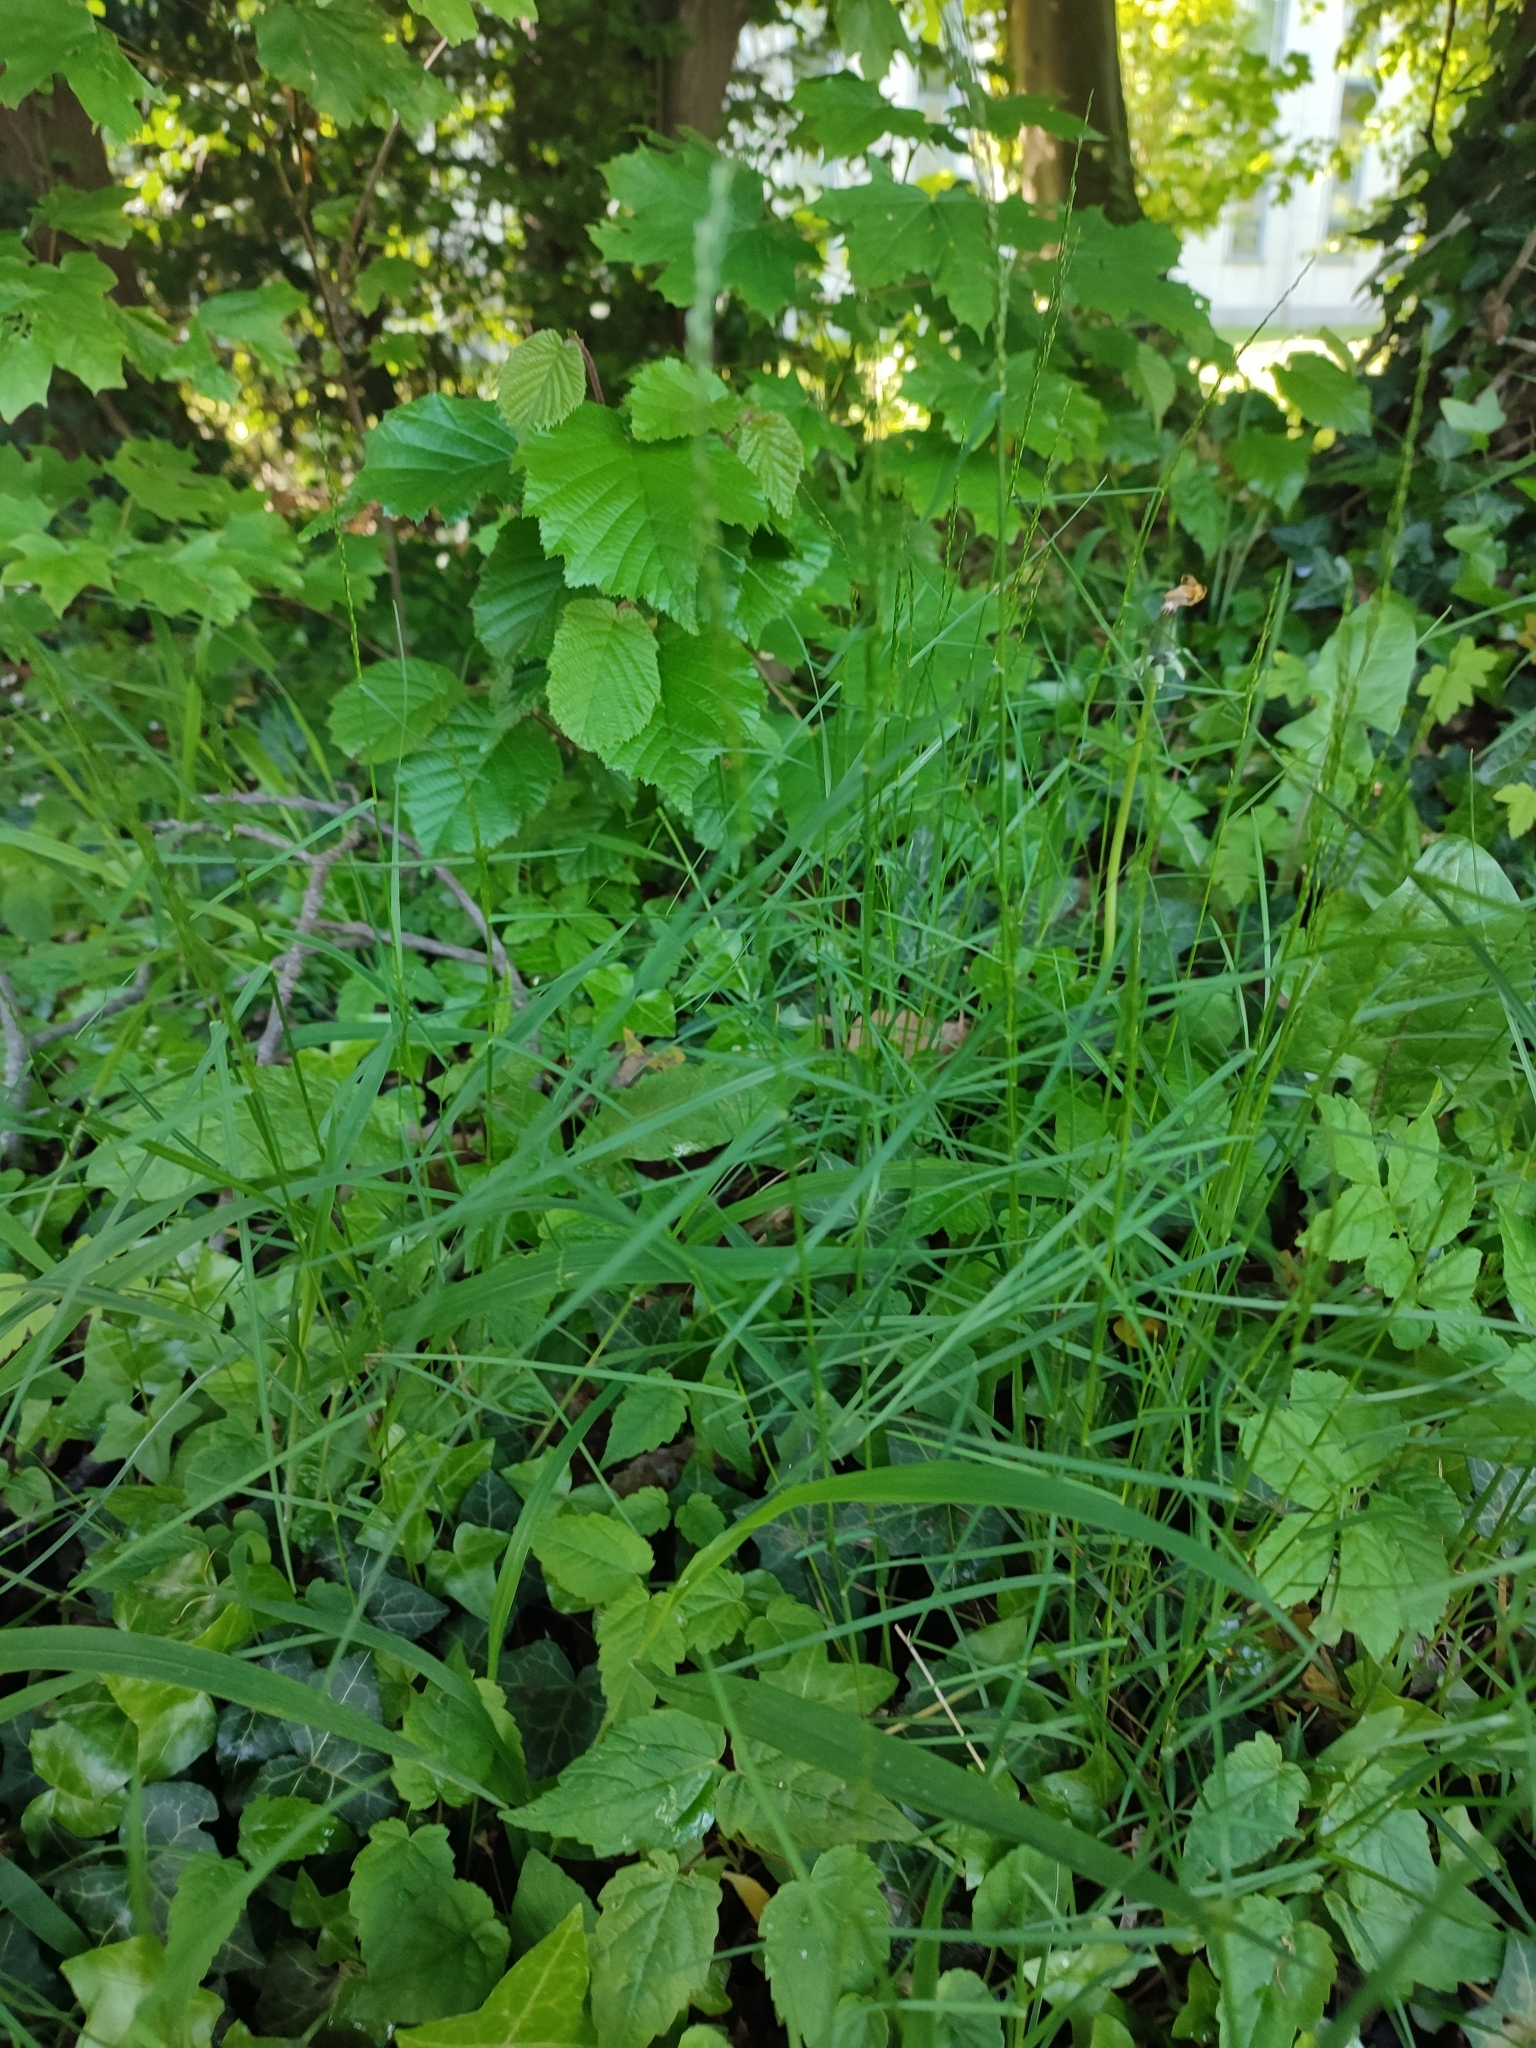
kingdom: Plantae
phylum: Tracheophyta
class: Liliopsida
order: Poales
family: Poaceae
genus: Poa
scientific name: Poa nemoralis
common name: Wood bluegrass
